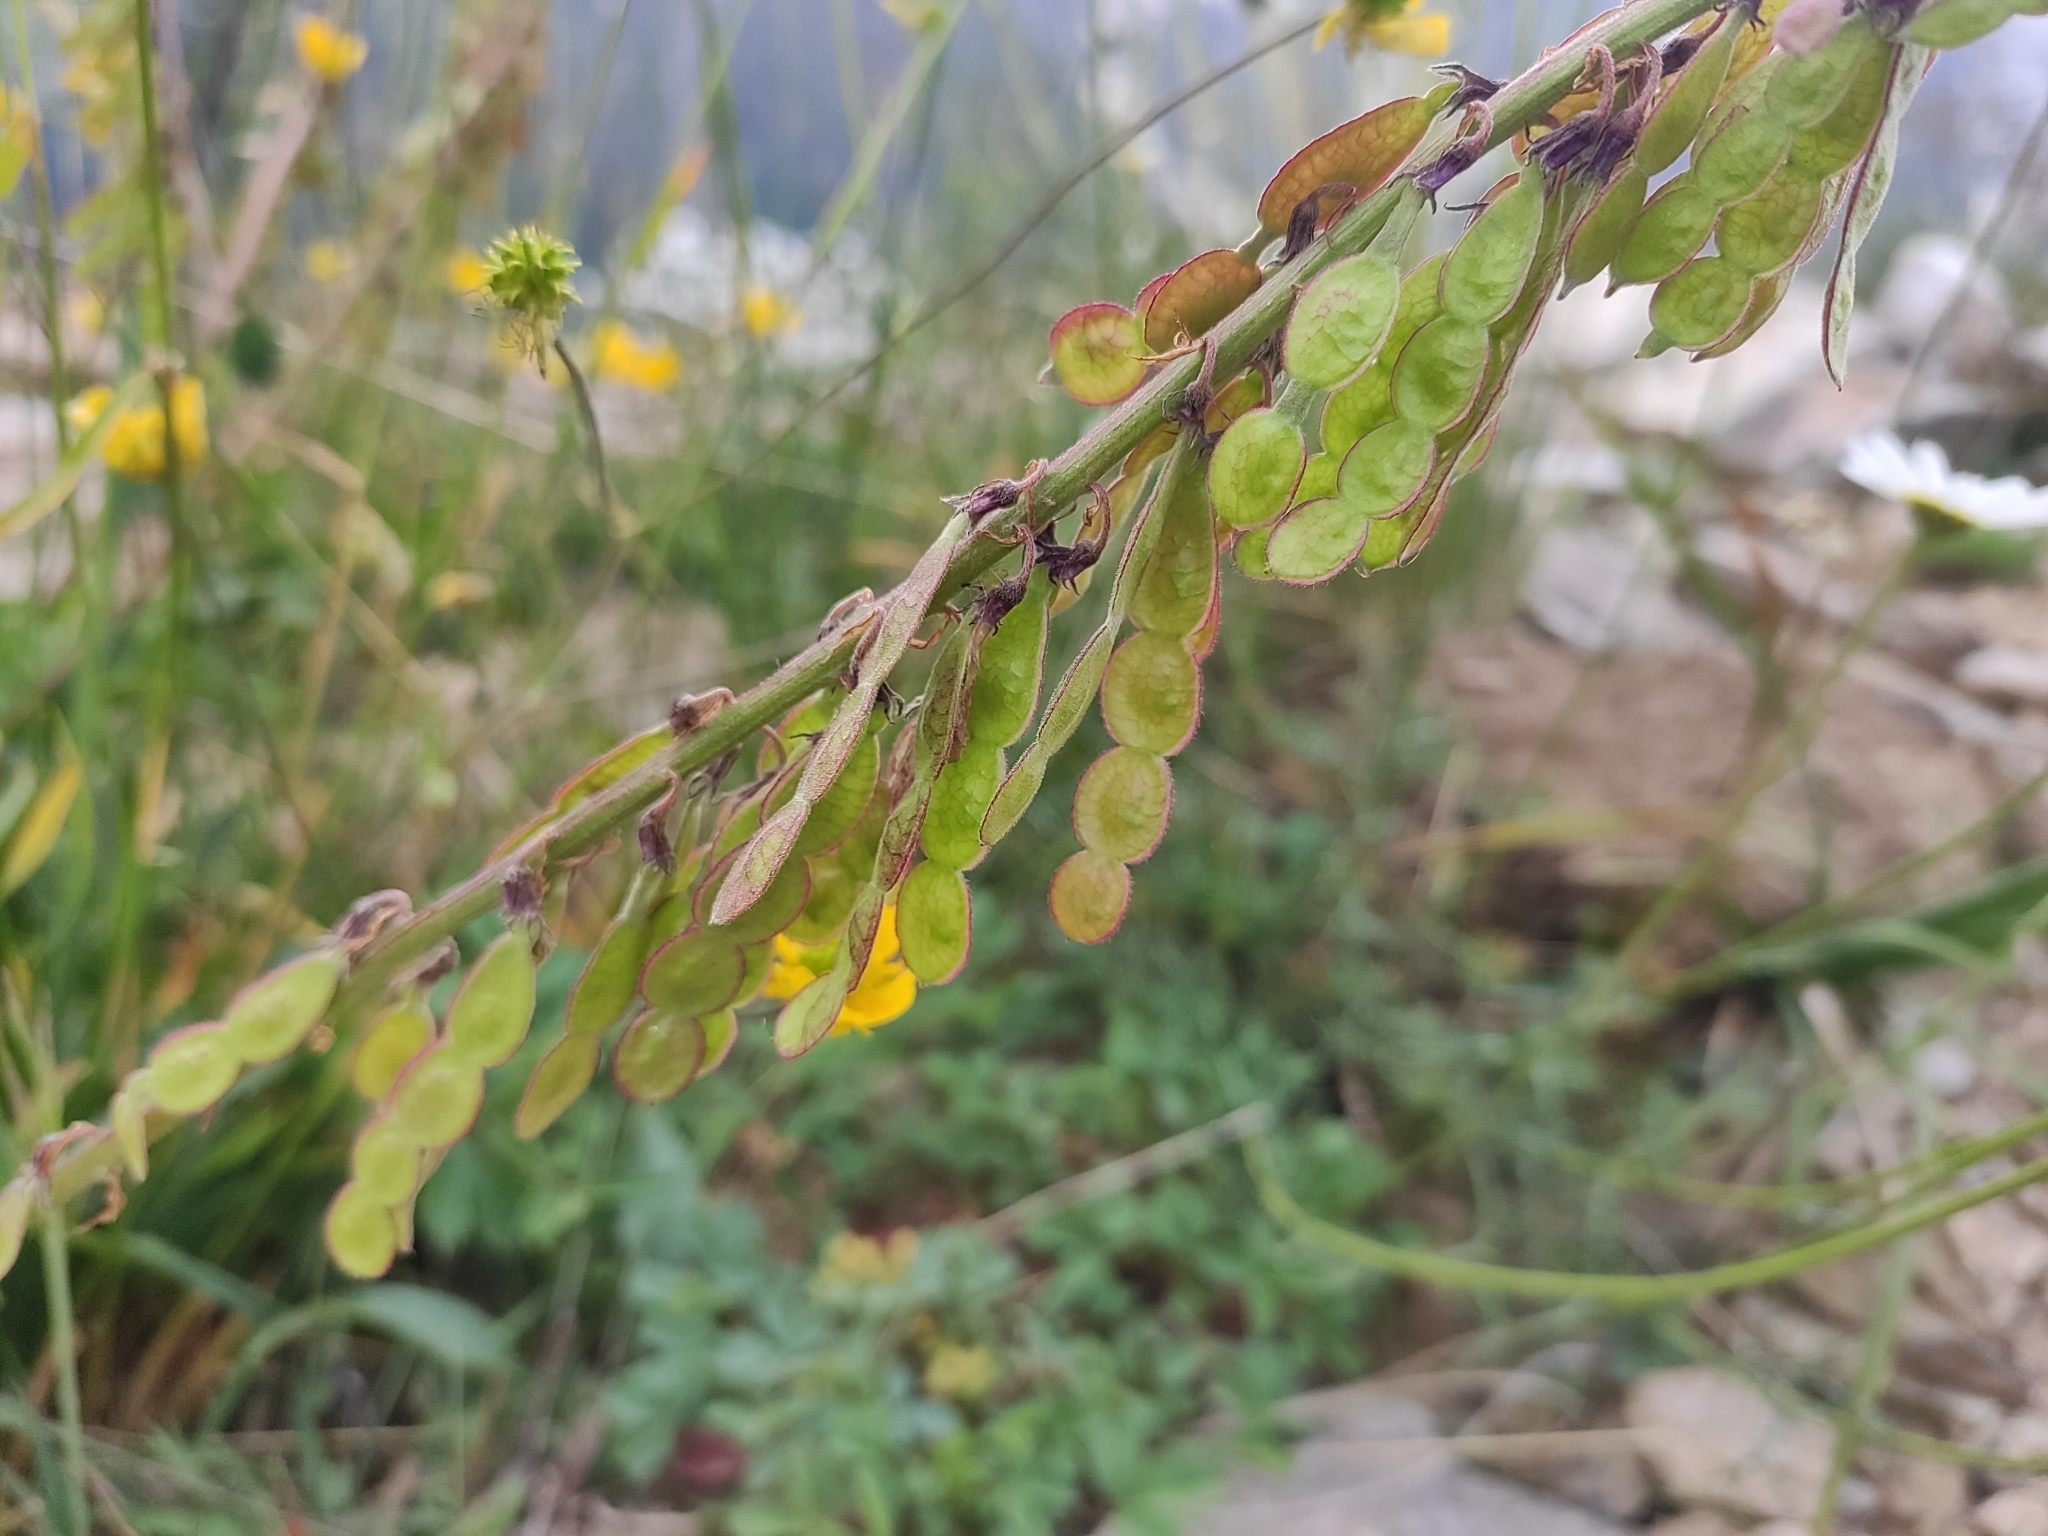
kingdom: Plantae
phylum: Tracheophyta
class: Magnoliopsida
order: Fabales
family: Fabaceae
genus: Hedysarum
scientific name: Hedysarum caucasicum
